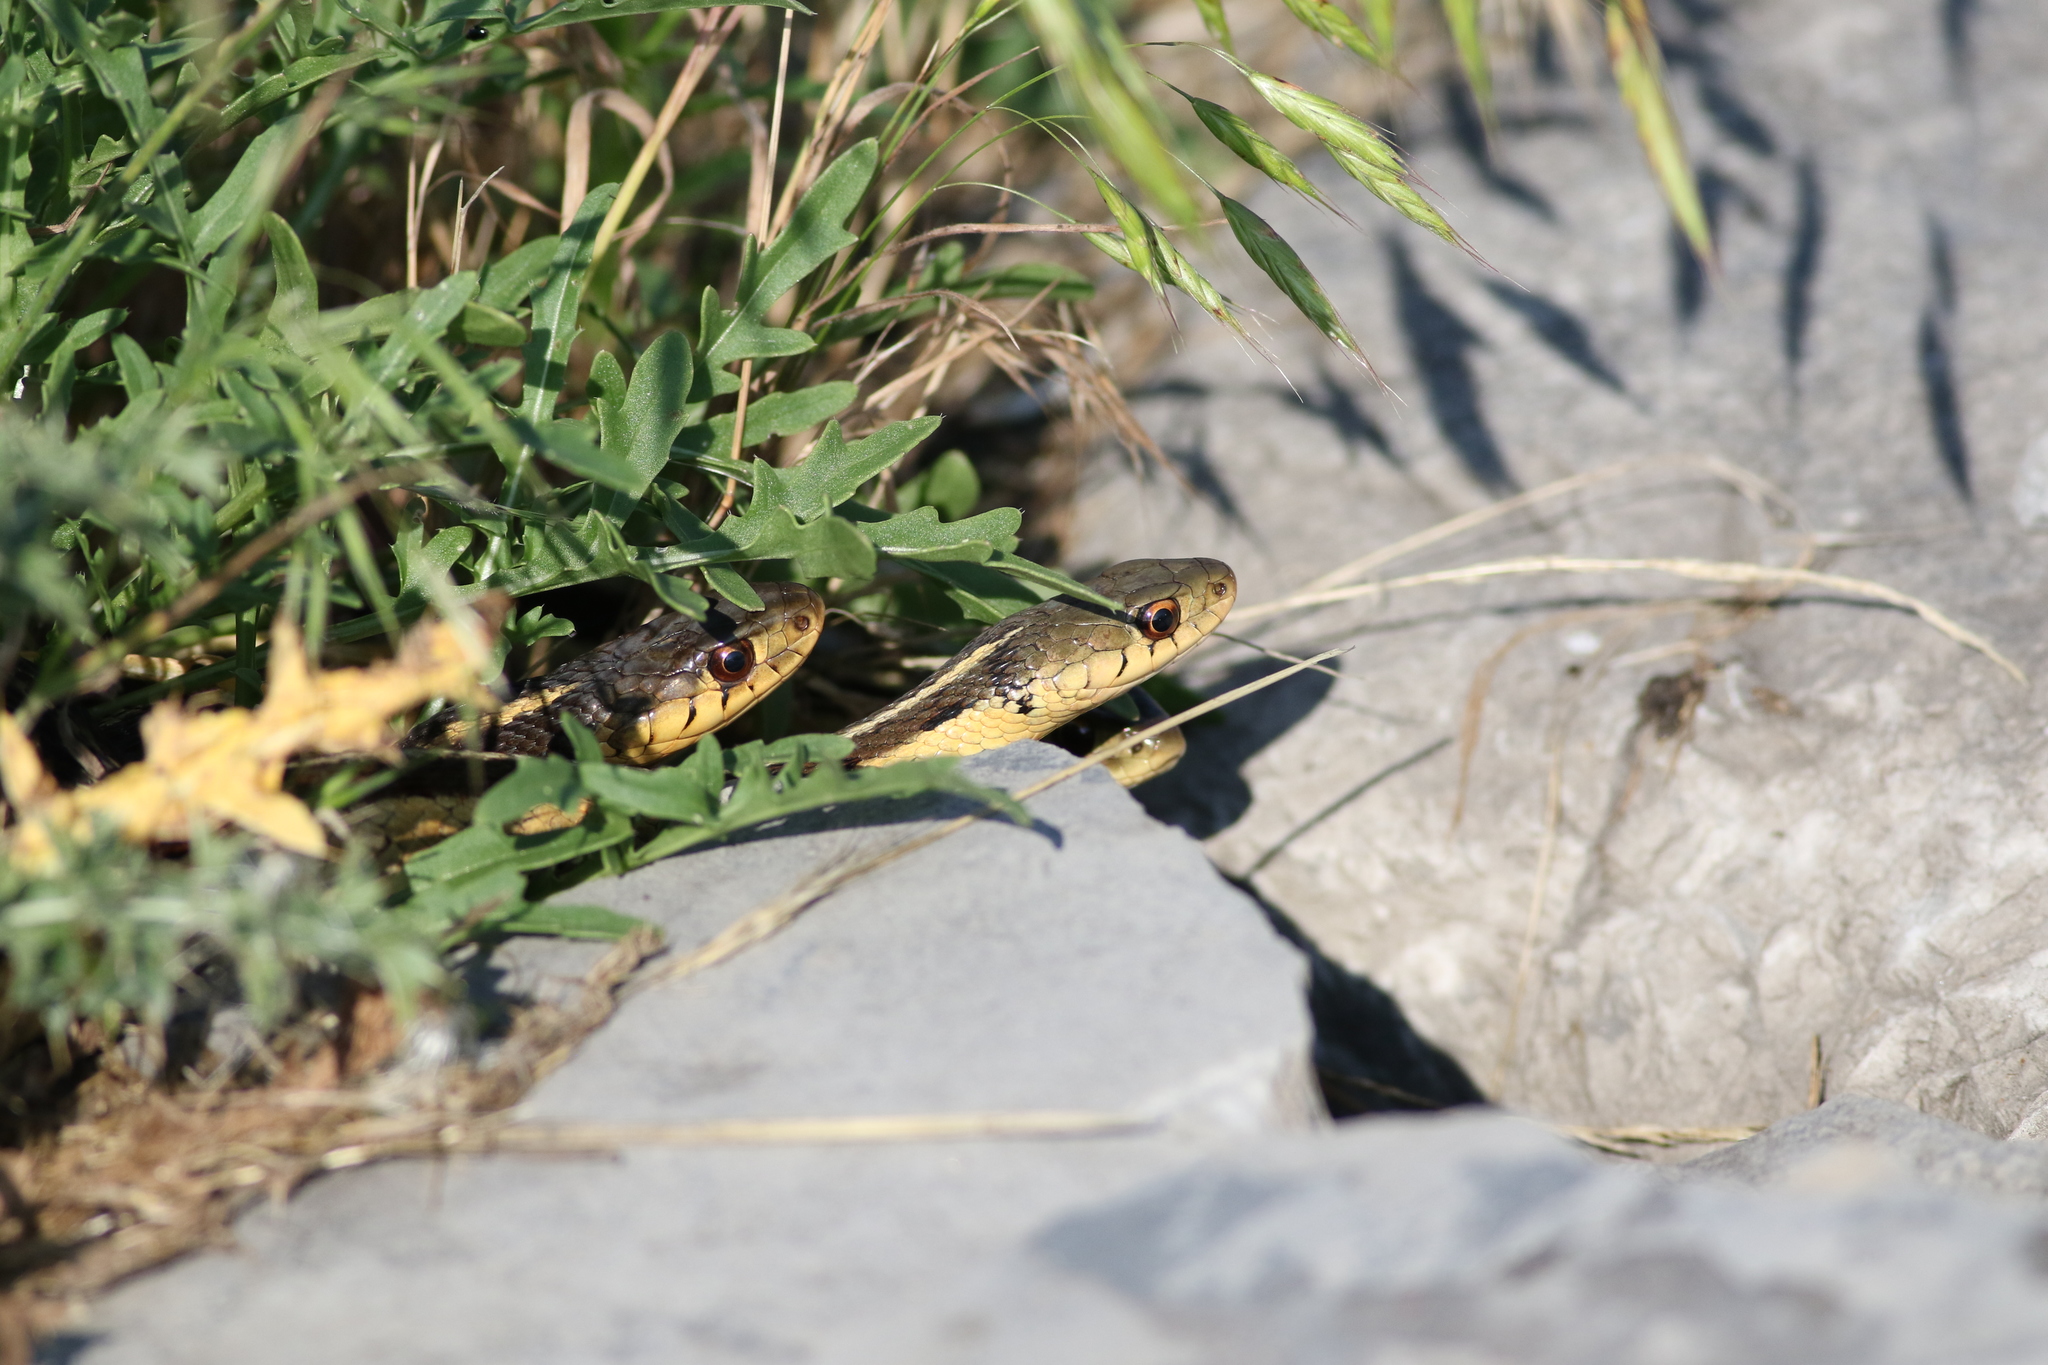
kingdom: Animalia
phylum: Chordata
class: Squamata
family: Colubridae
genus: Thamnophis
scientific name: Thamnophis sirtalis
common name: Common garter snake
